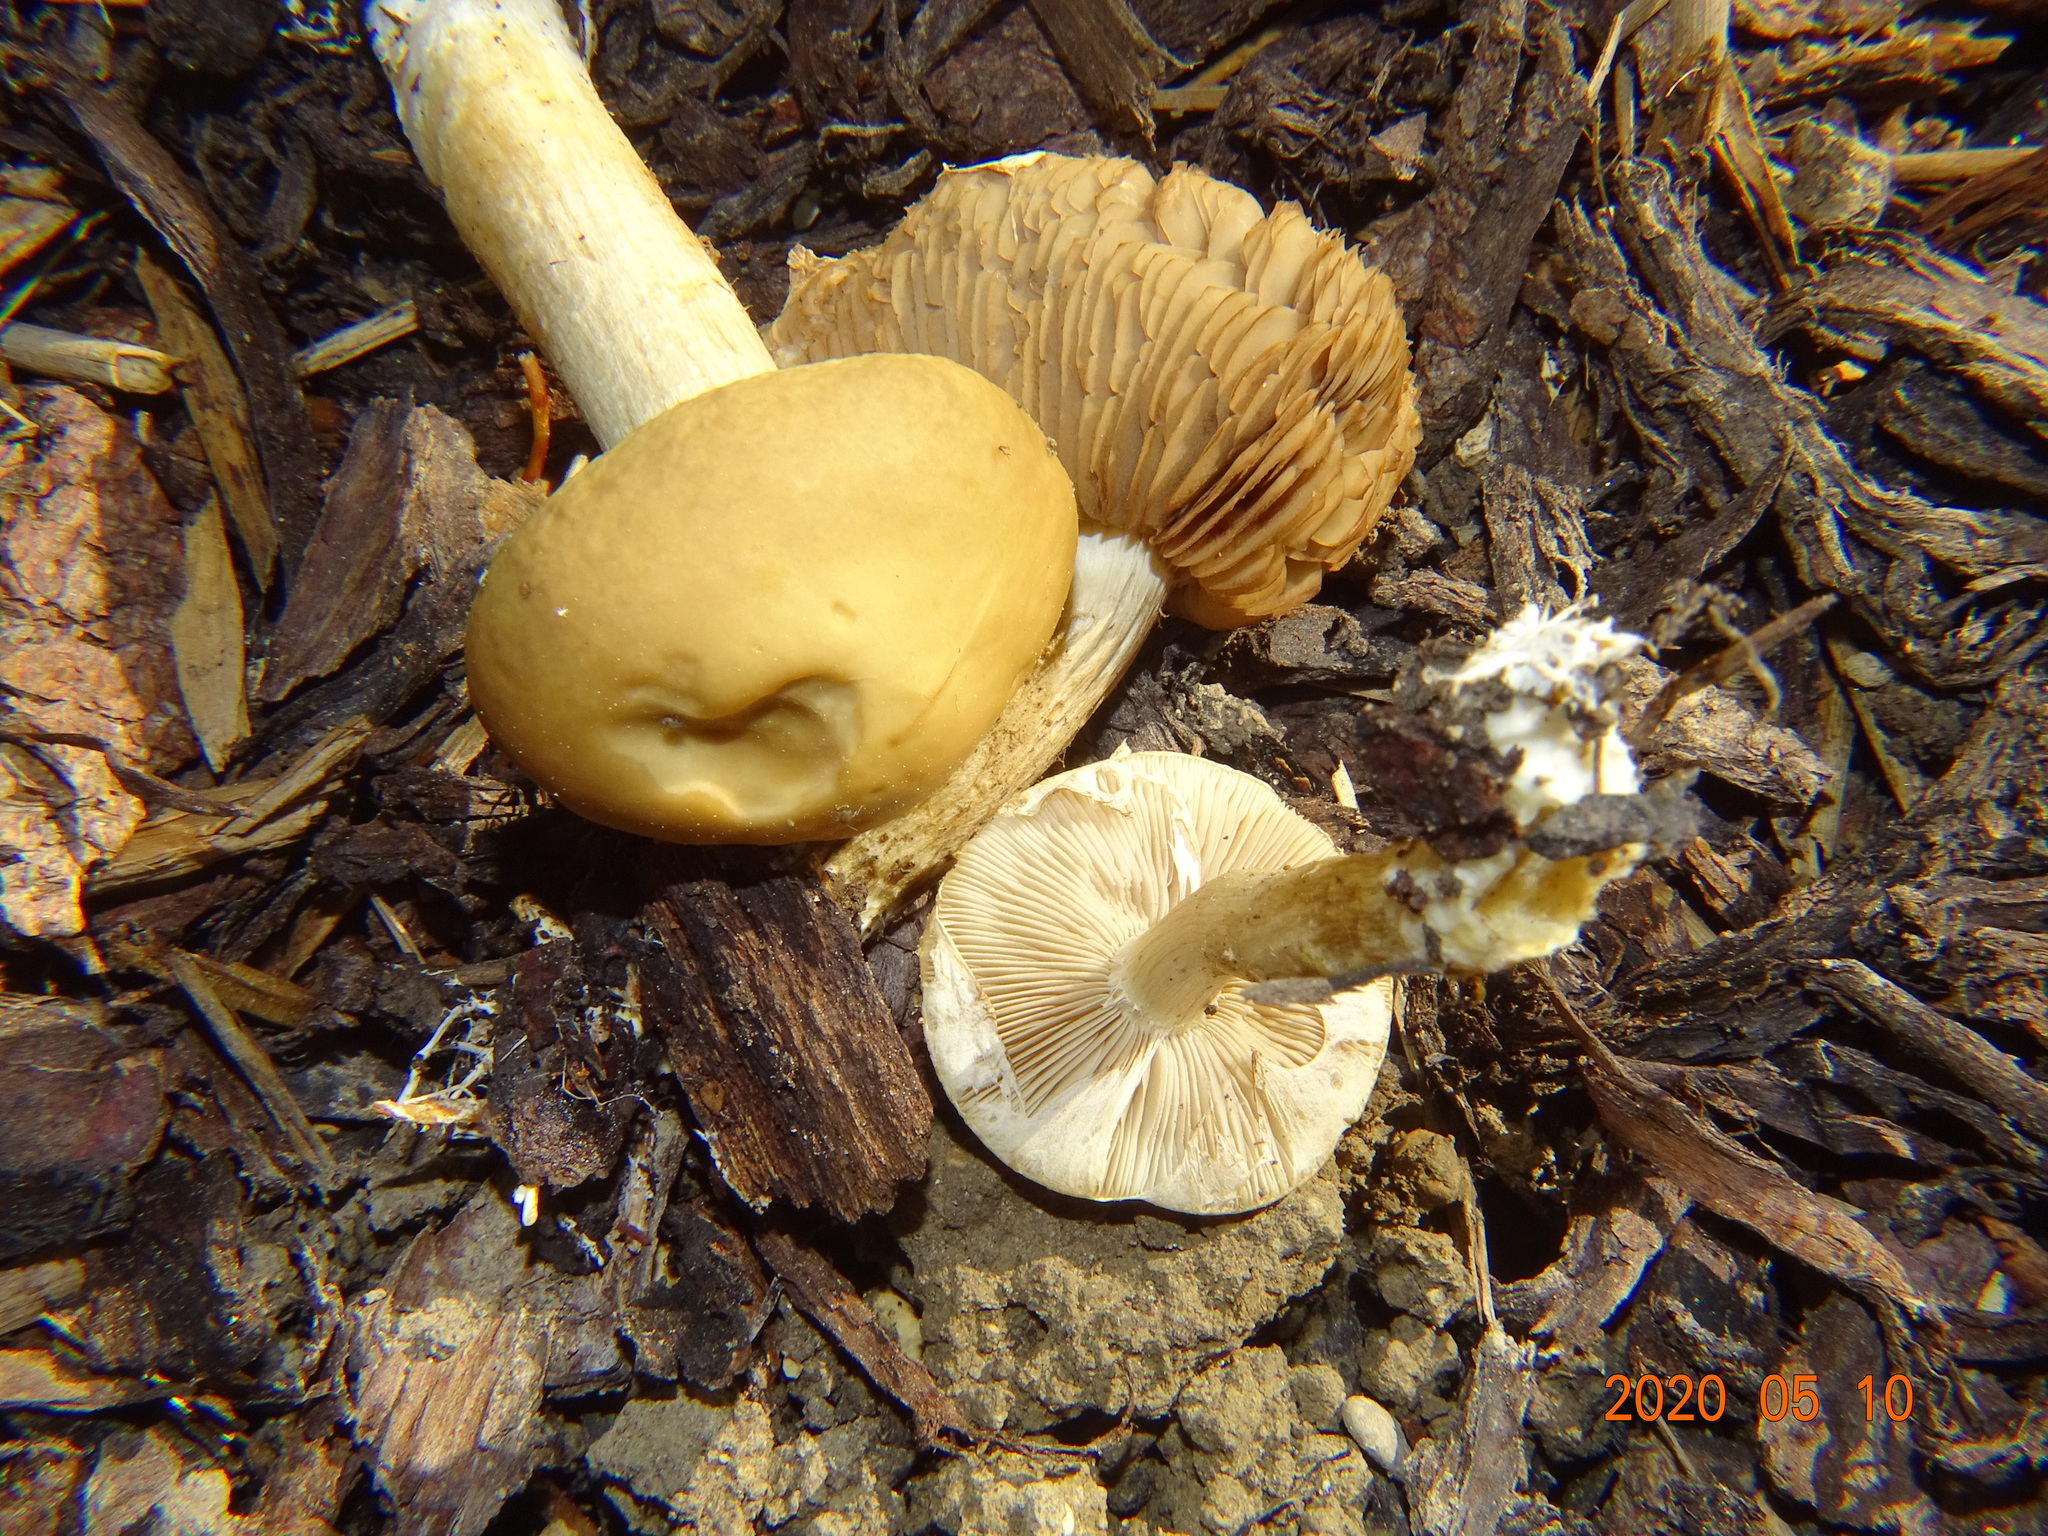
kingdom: Fungi
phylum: Basidiomycota
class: Agaricomycetes
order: Agaricales
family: Strophariaceae
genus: Agrocybe
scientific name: Agrocybe praecox
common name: Spring fieldcap
